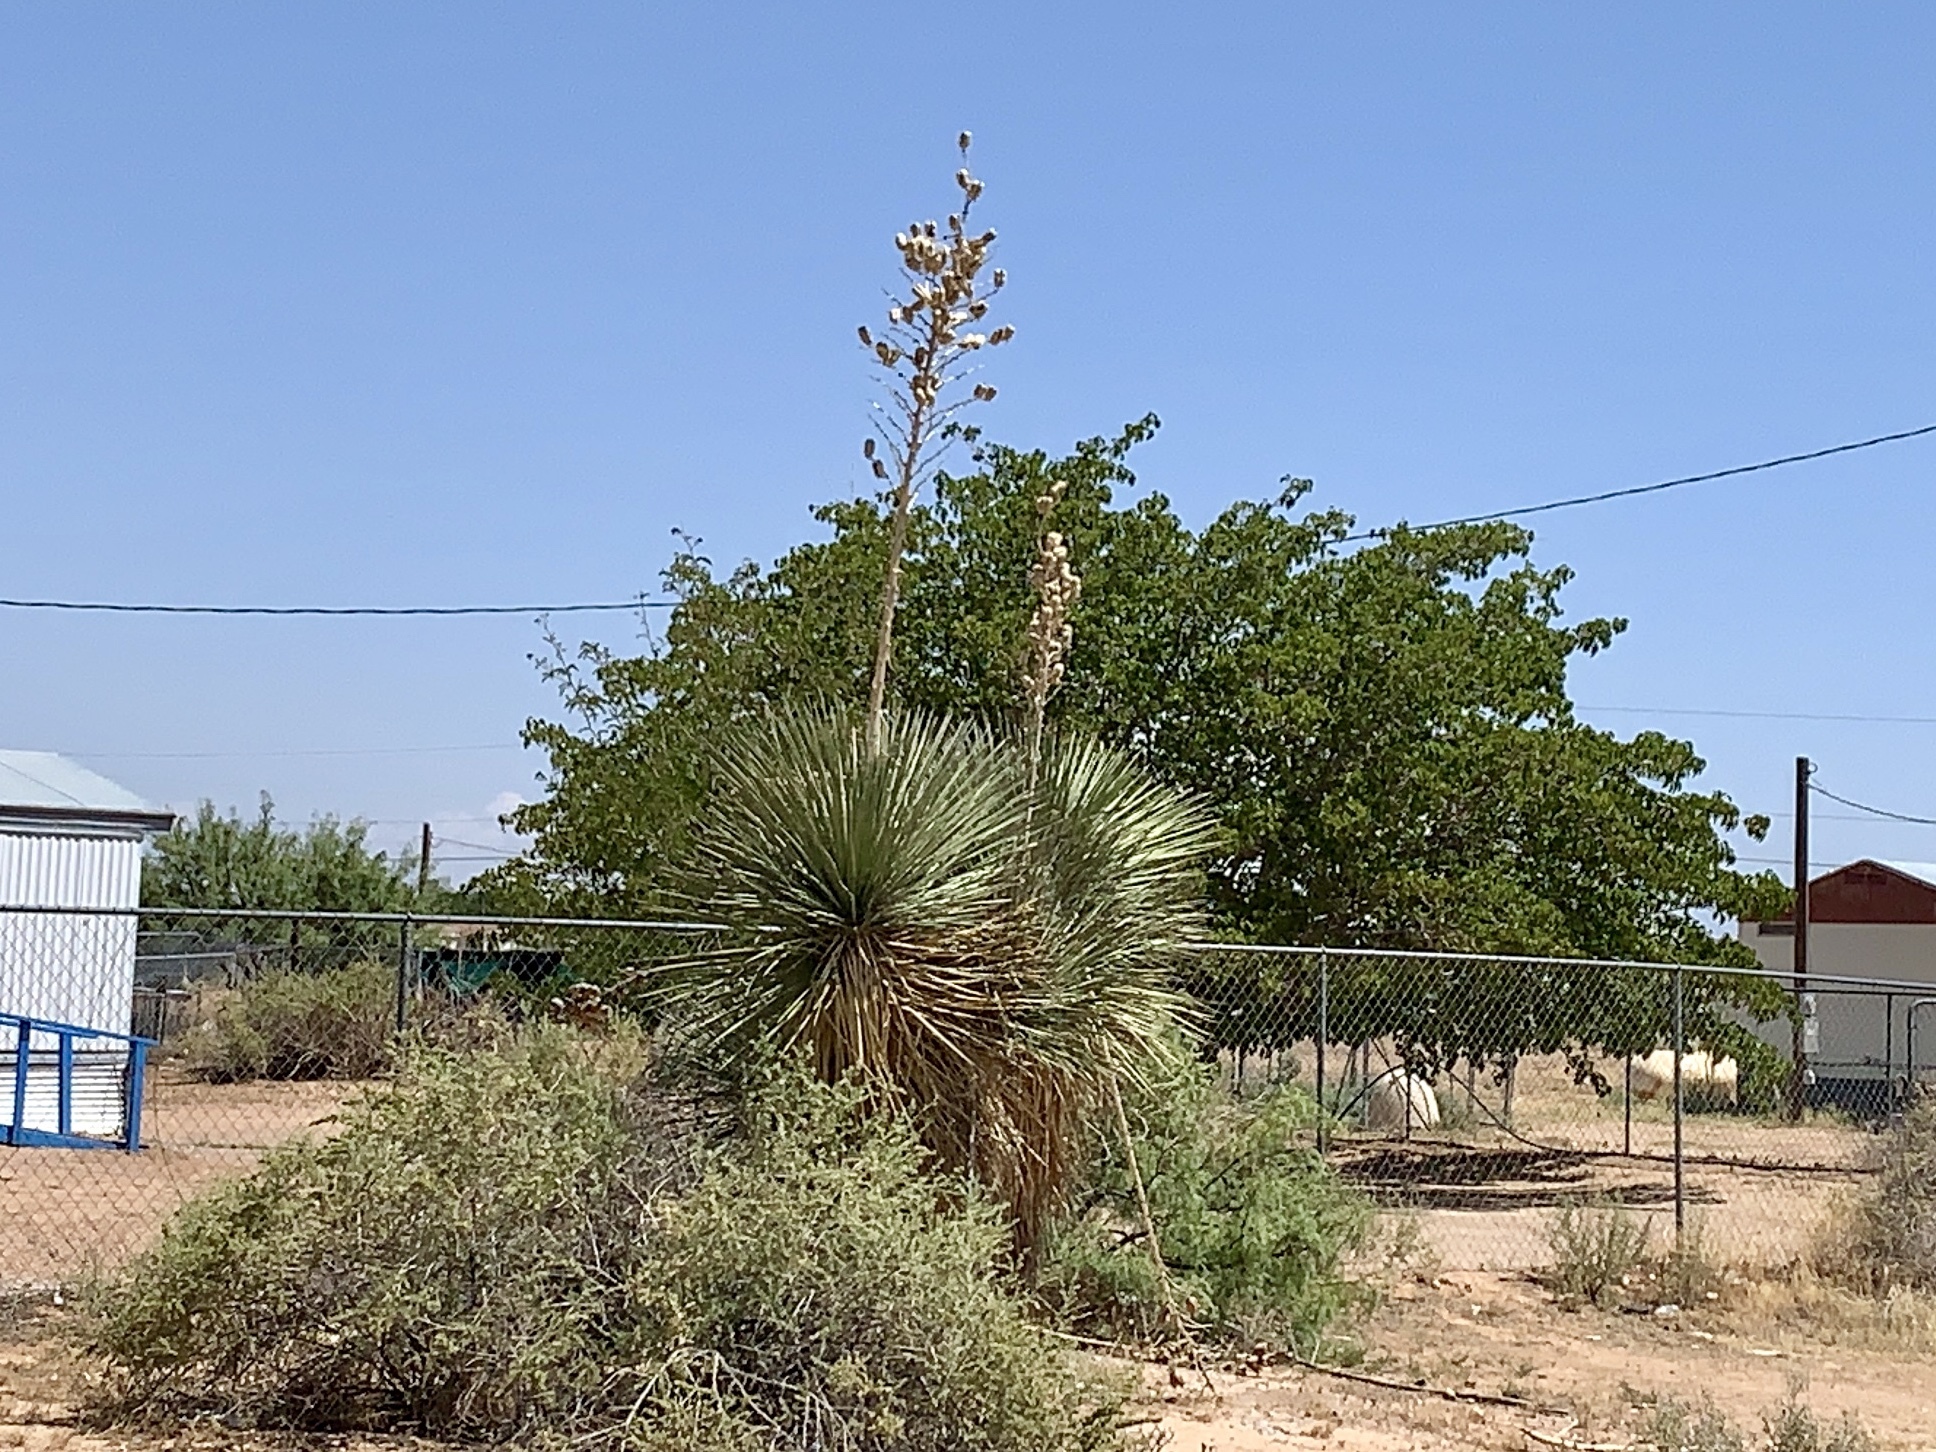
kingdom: Plantae
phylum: Tracheophyta
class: Liliopsida
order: Asparagales
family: Asparagaceae
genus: Yucca
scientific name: Yucca elata
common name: Palmella
